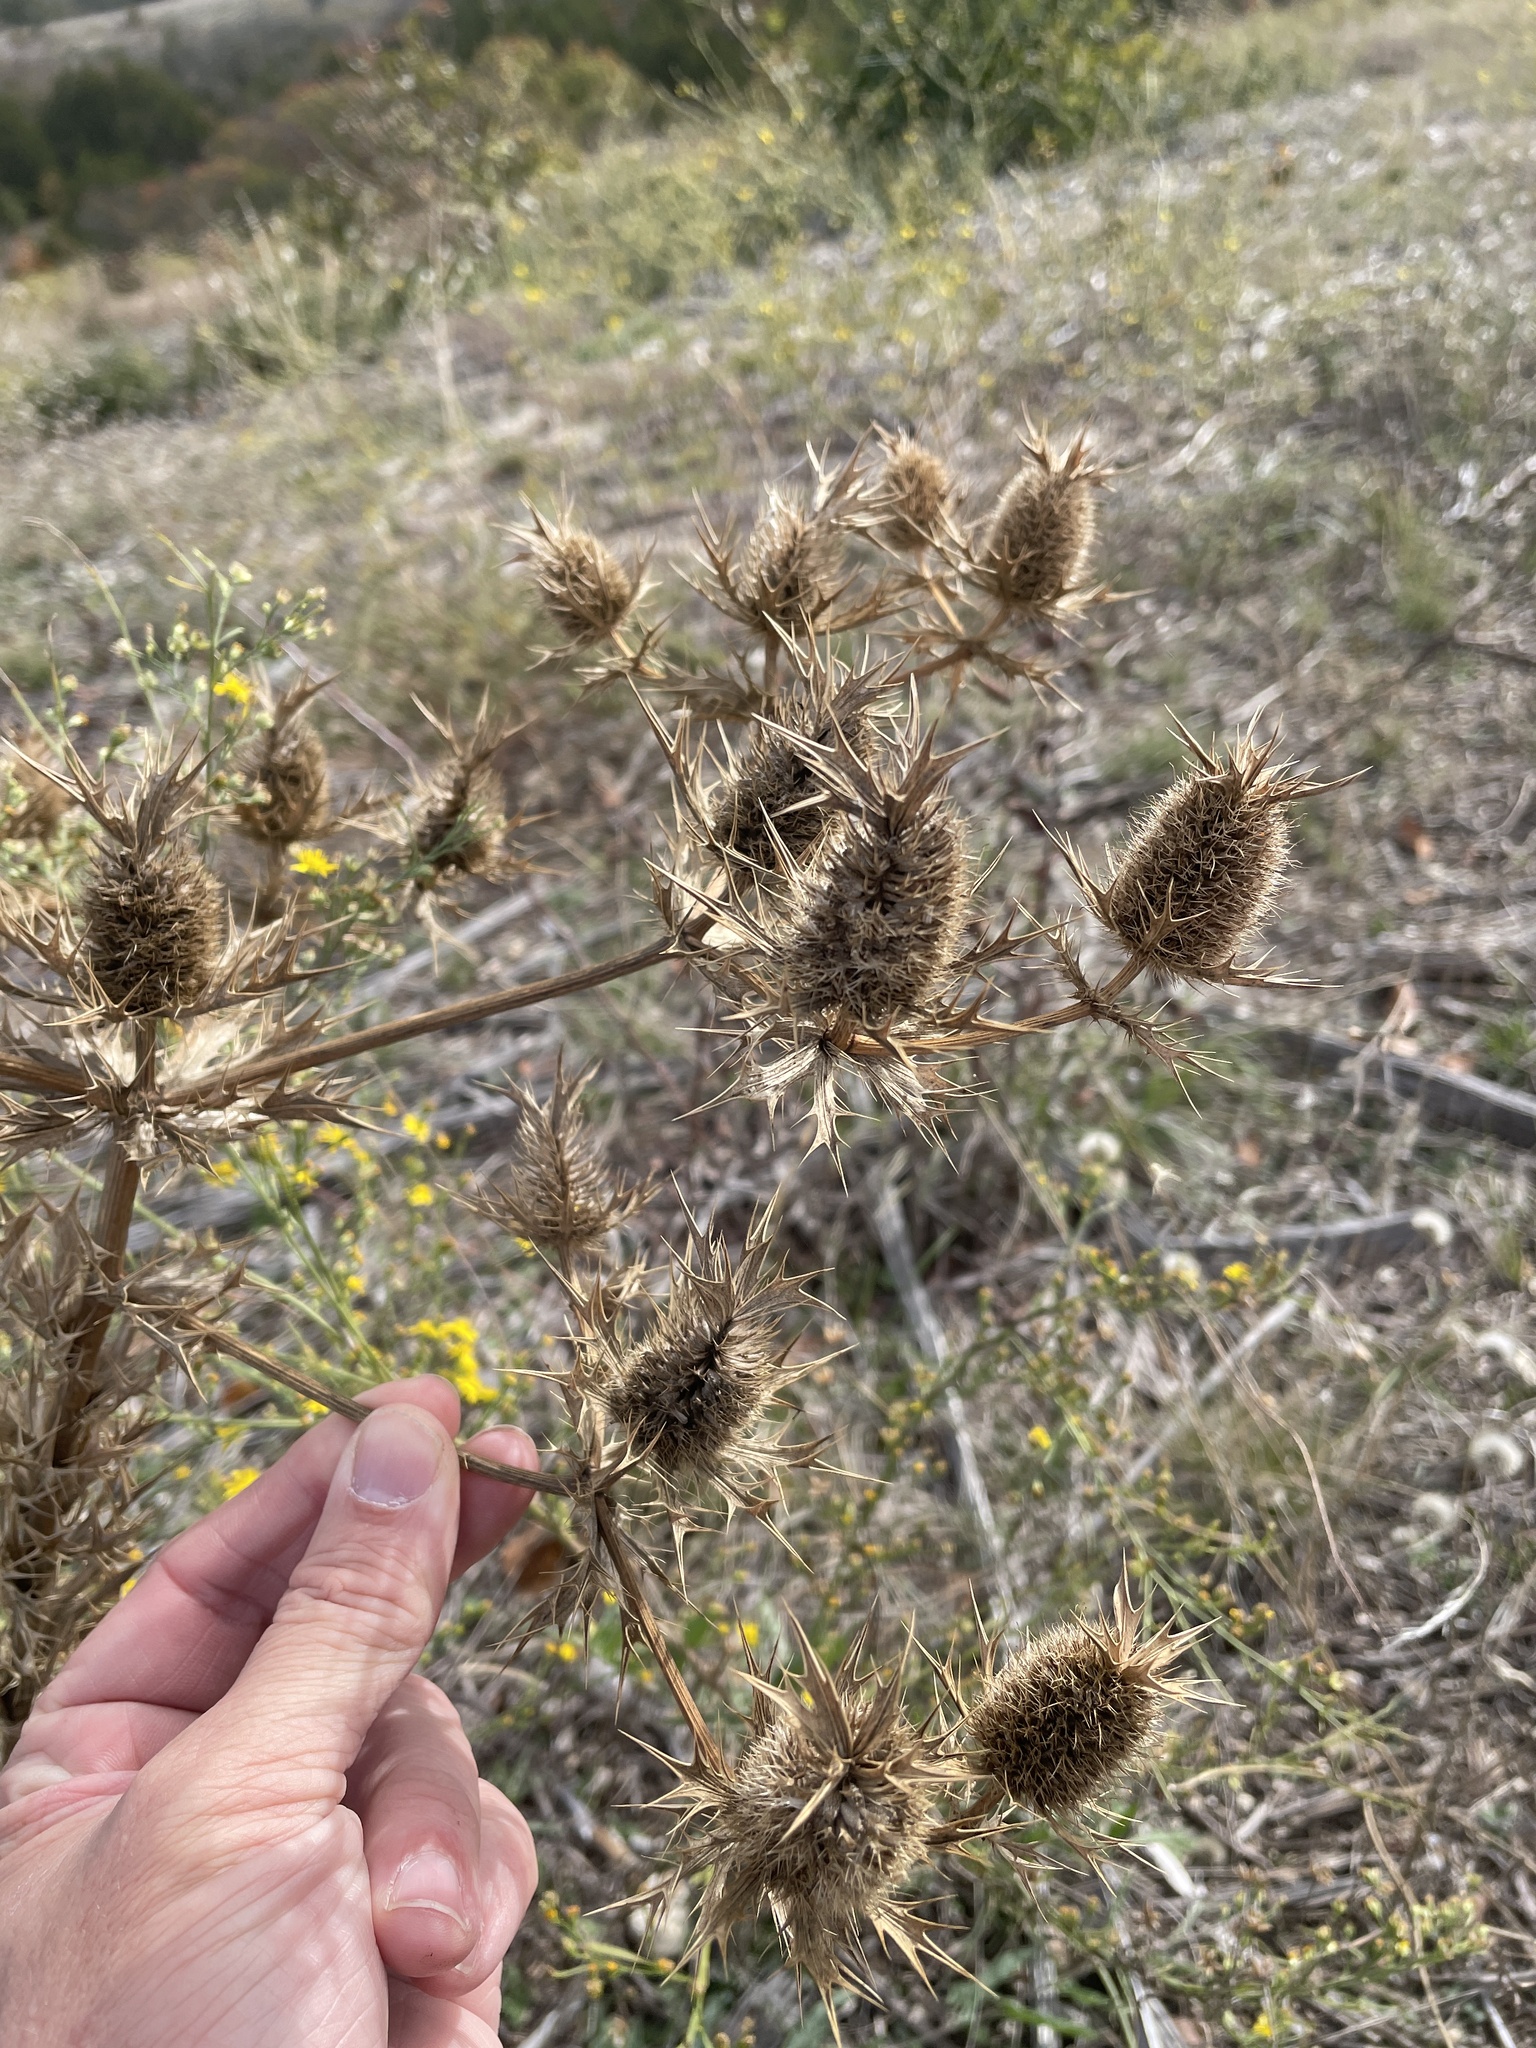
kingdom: Plantae
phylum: Tracheophyta
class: Magnoliopsida
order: Apiales
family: Apiaceae
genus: Eryngium
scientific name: Eryngium leavenworthii
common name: Leavenworth's eryngo
